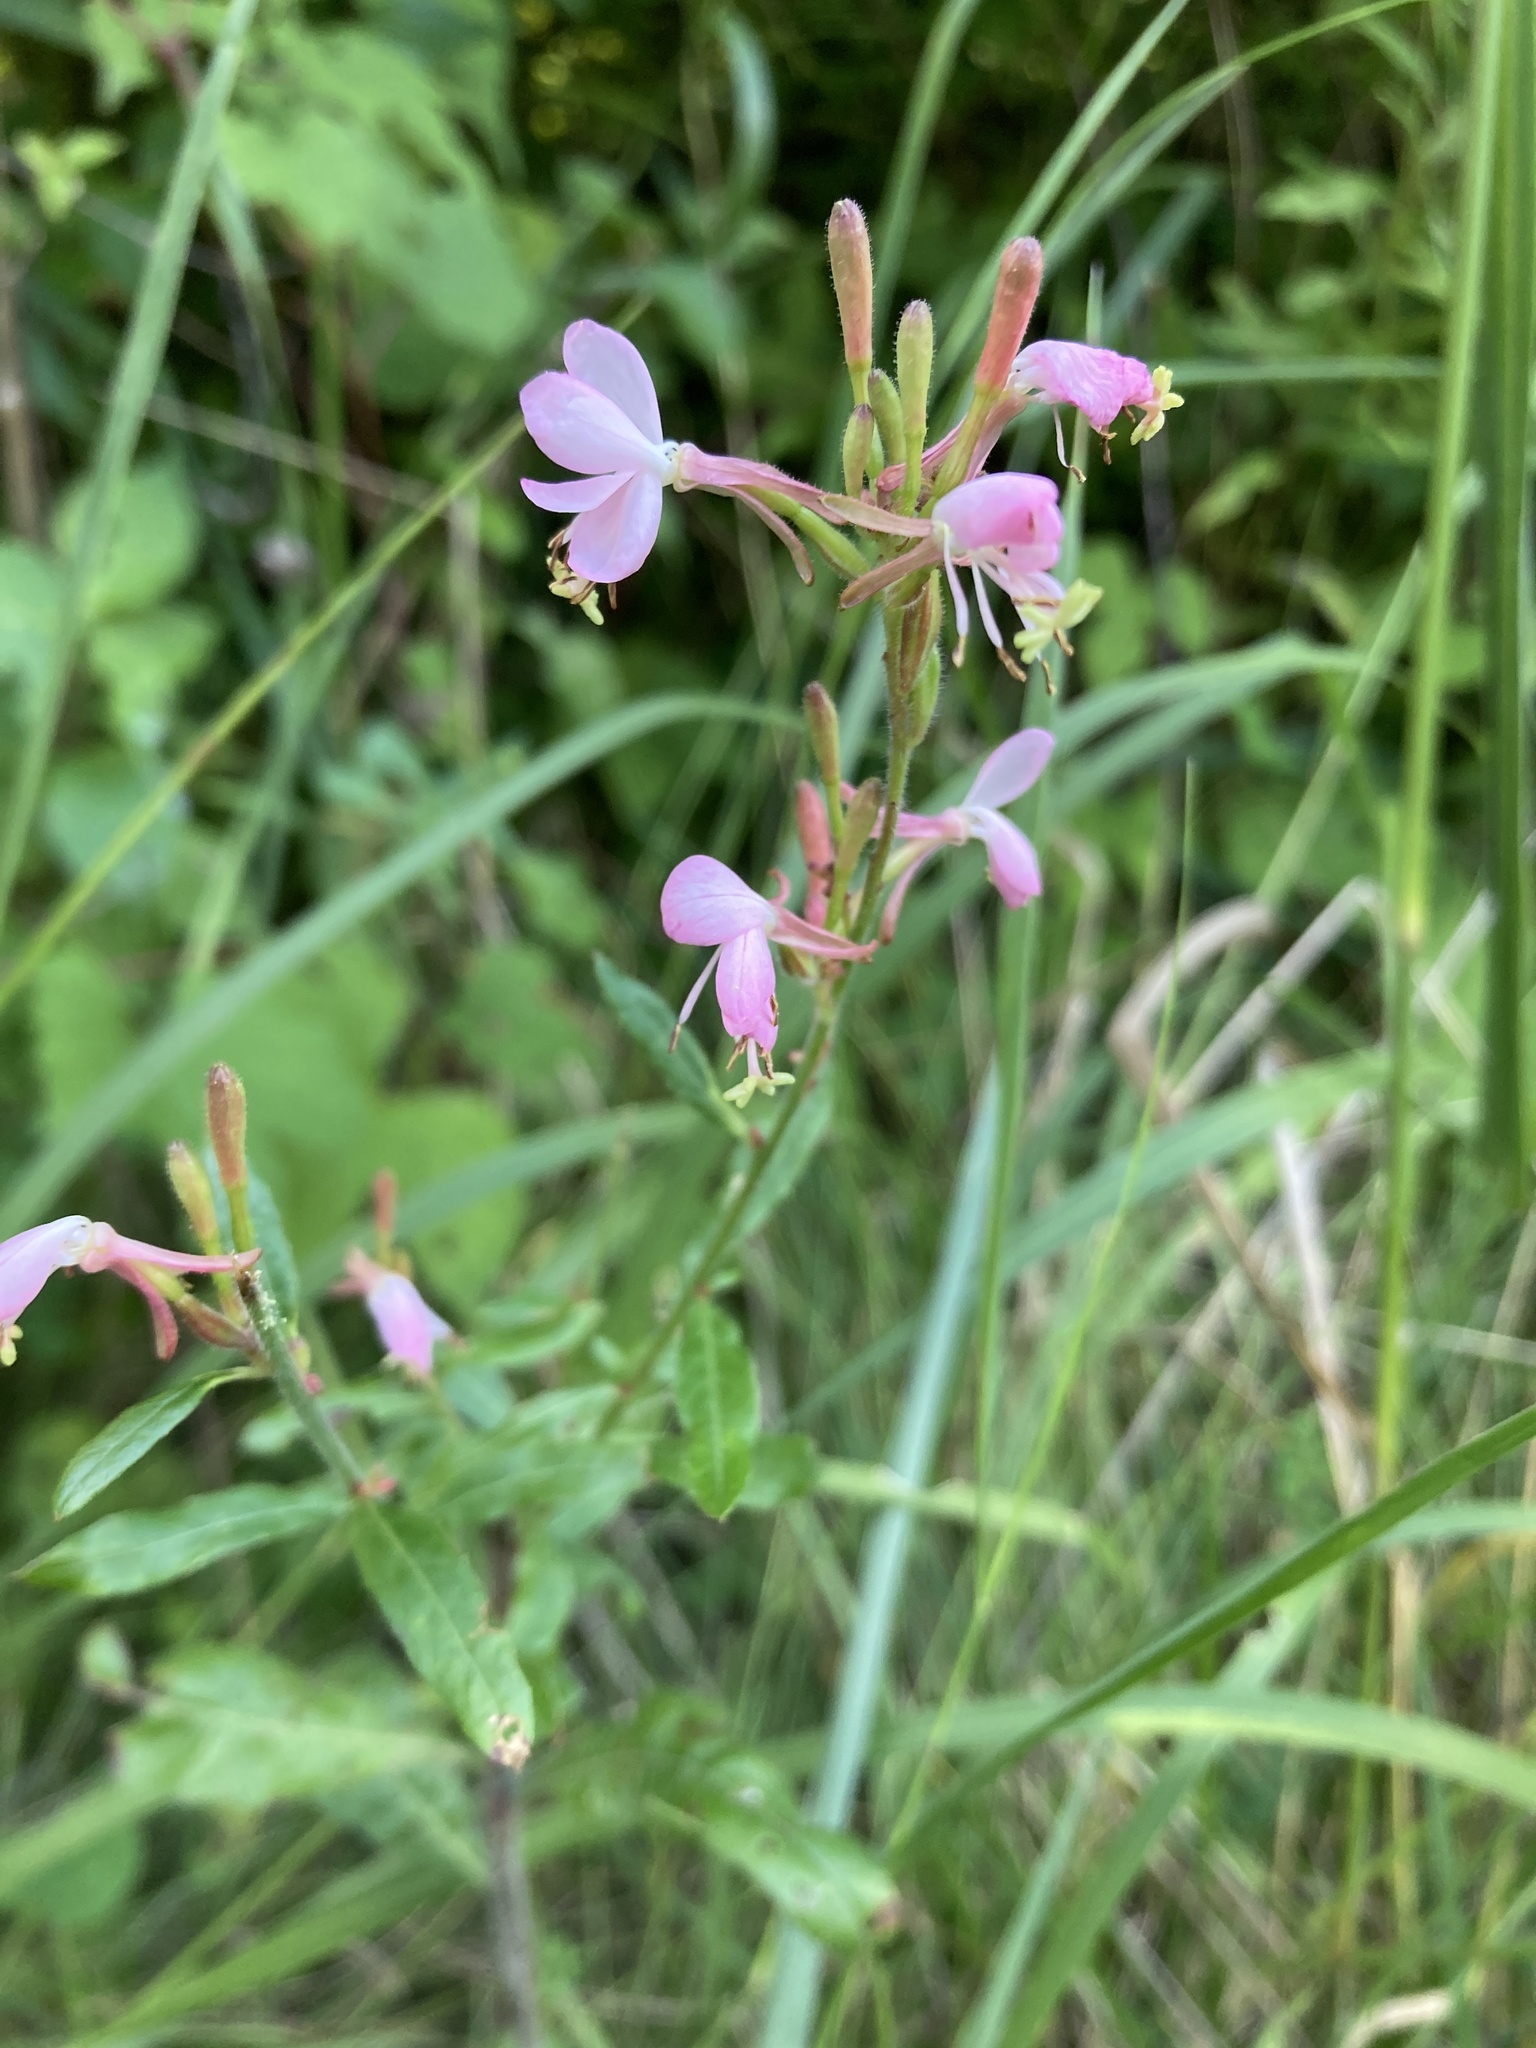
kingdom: Plantae
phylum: Tracheophyta
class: Magnoliopsida
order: Myrtales
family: Onagraceae
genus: Oenothera
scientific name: Oenothera gaura
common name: Biennial beeblossom
